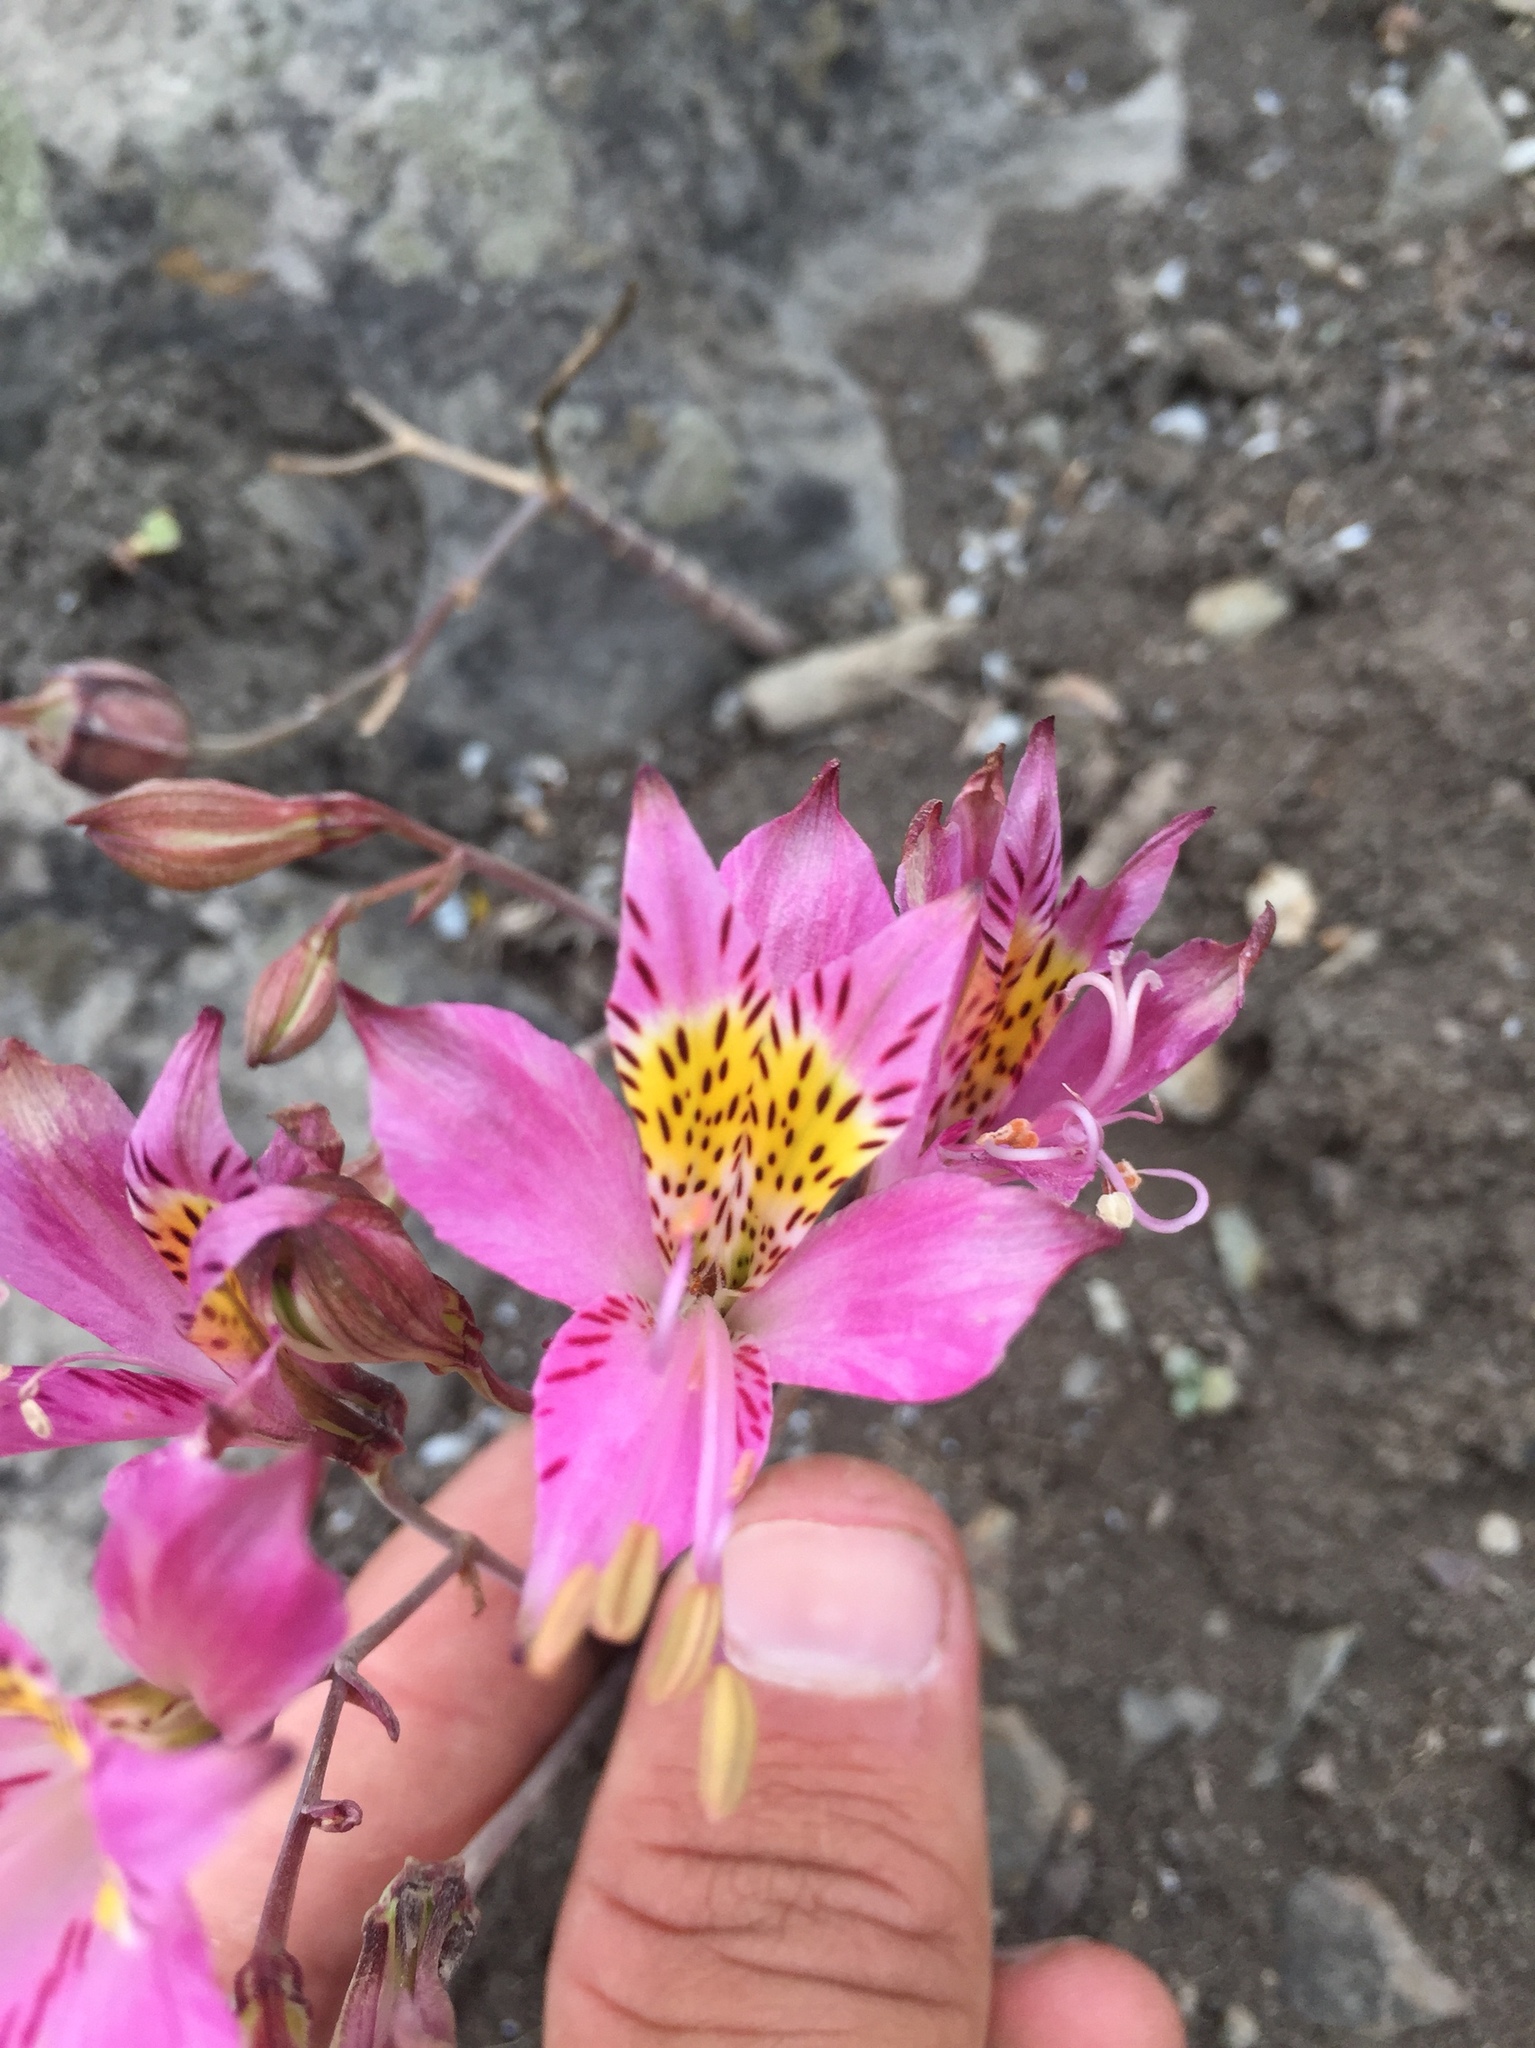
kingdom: Plantae
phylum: Tracheophyta
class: Liliopsida
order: Liliales
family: Alstroemeriaceae
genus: Alstroemeria
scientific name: Alstroemeria chorillensis
